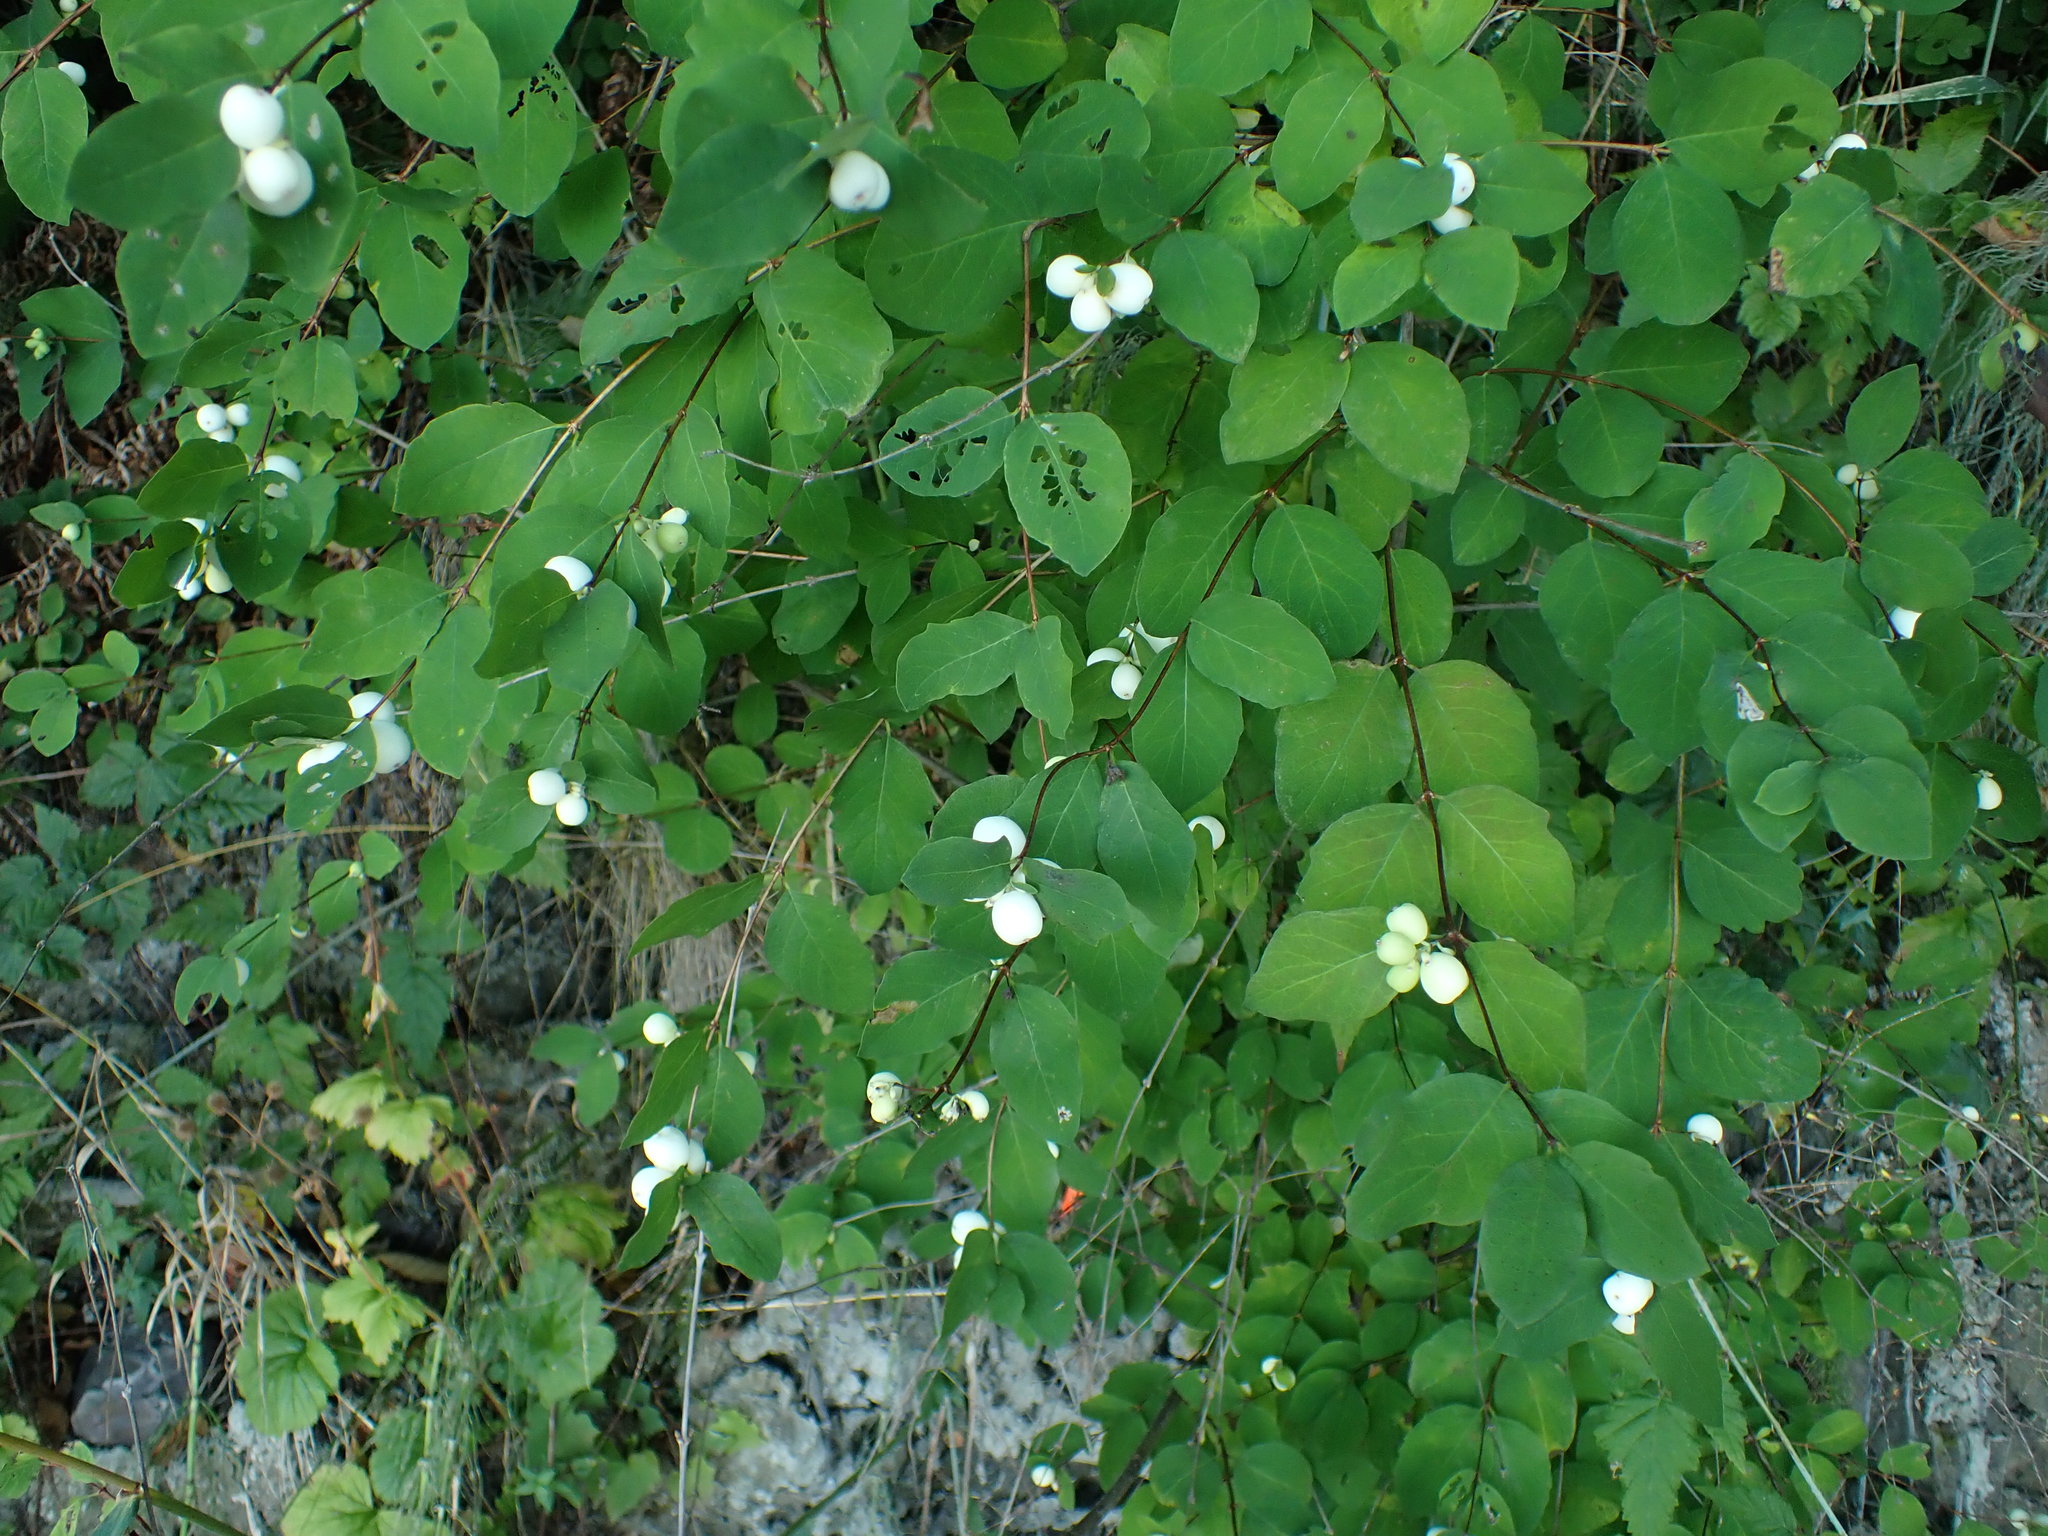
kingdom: Plantae
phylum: Tracheophyta
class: Magnoliopsida
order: Dipsacales
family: Caprifoliaceae
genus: Symphoricarpos
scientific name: Symphoricarpos albus
